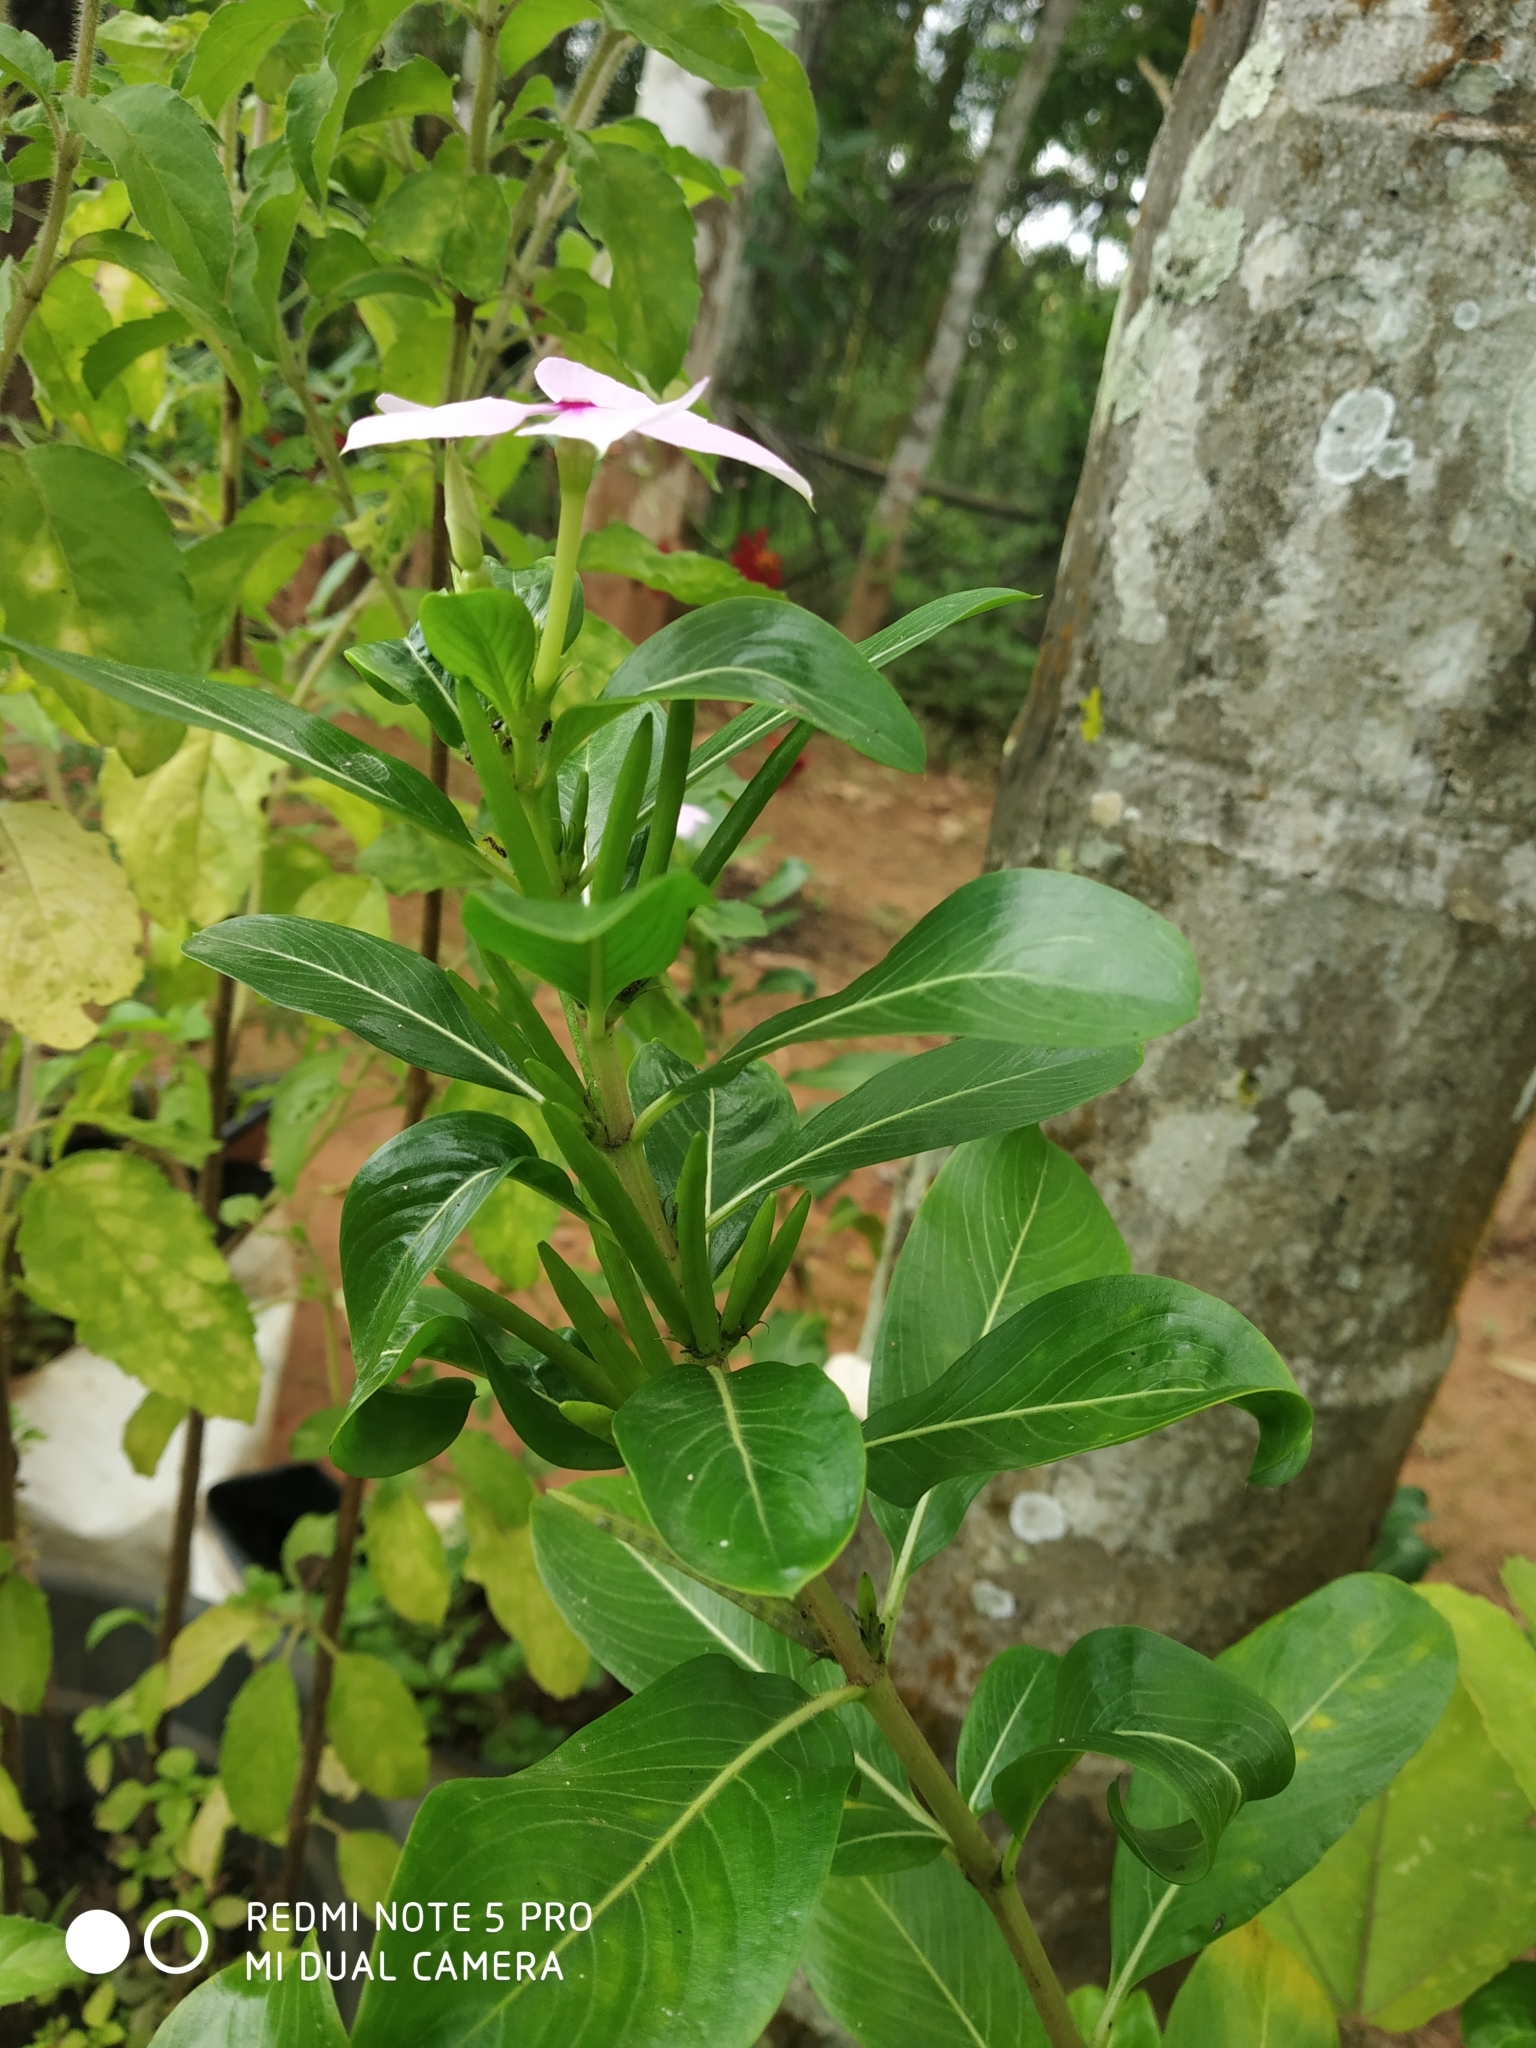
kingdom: Plantae
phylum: Tracheophyta
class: Magnoliopsida
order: Gentianales
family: Apocynaceae
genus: Catharanthus
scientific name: Catharanthus roseus
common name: Madagascar periwinkle
